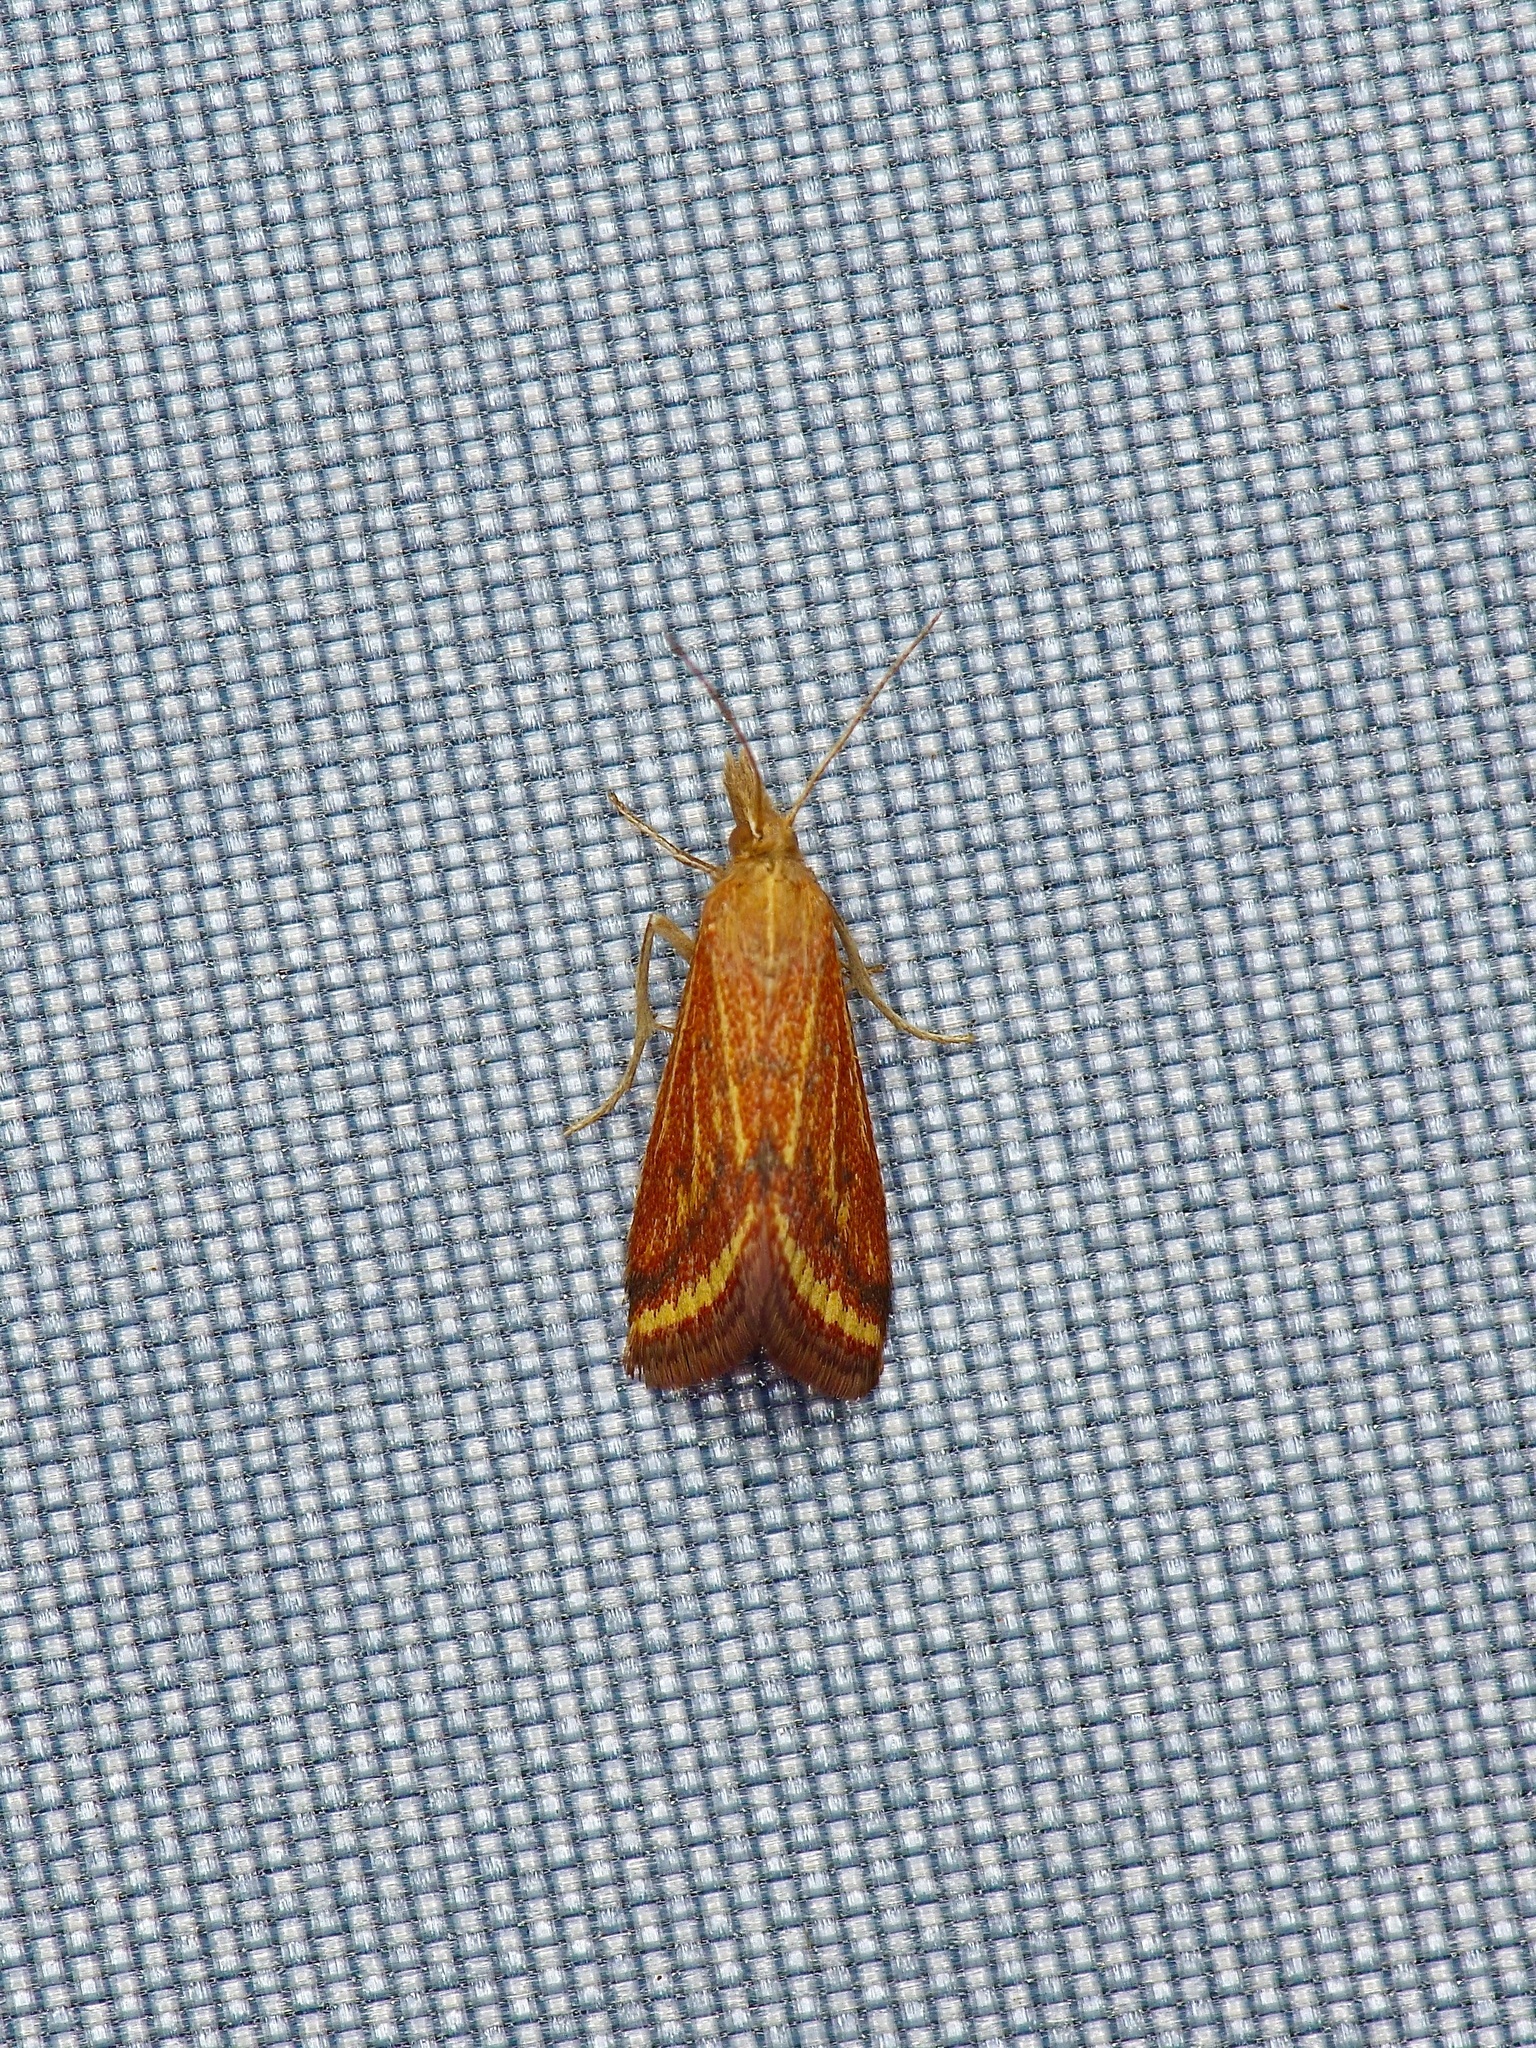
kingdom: Animalia
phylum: Arthropoda
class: Insecta
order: Lepidoptera
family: Crambidae
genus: Microtheoris
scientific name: Microtheoris ophionalis
